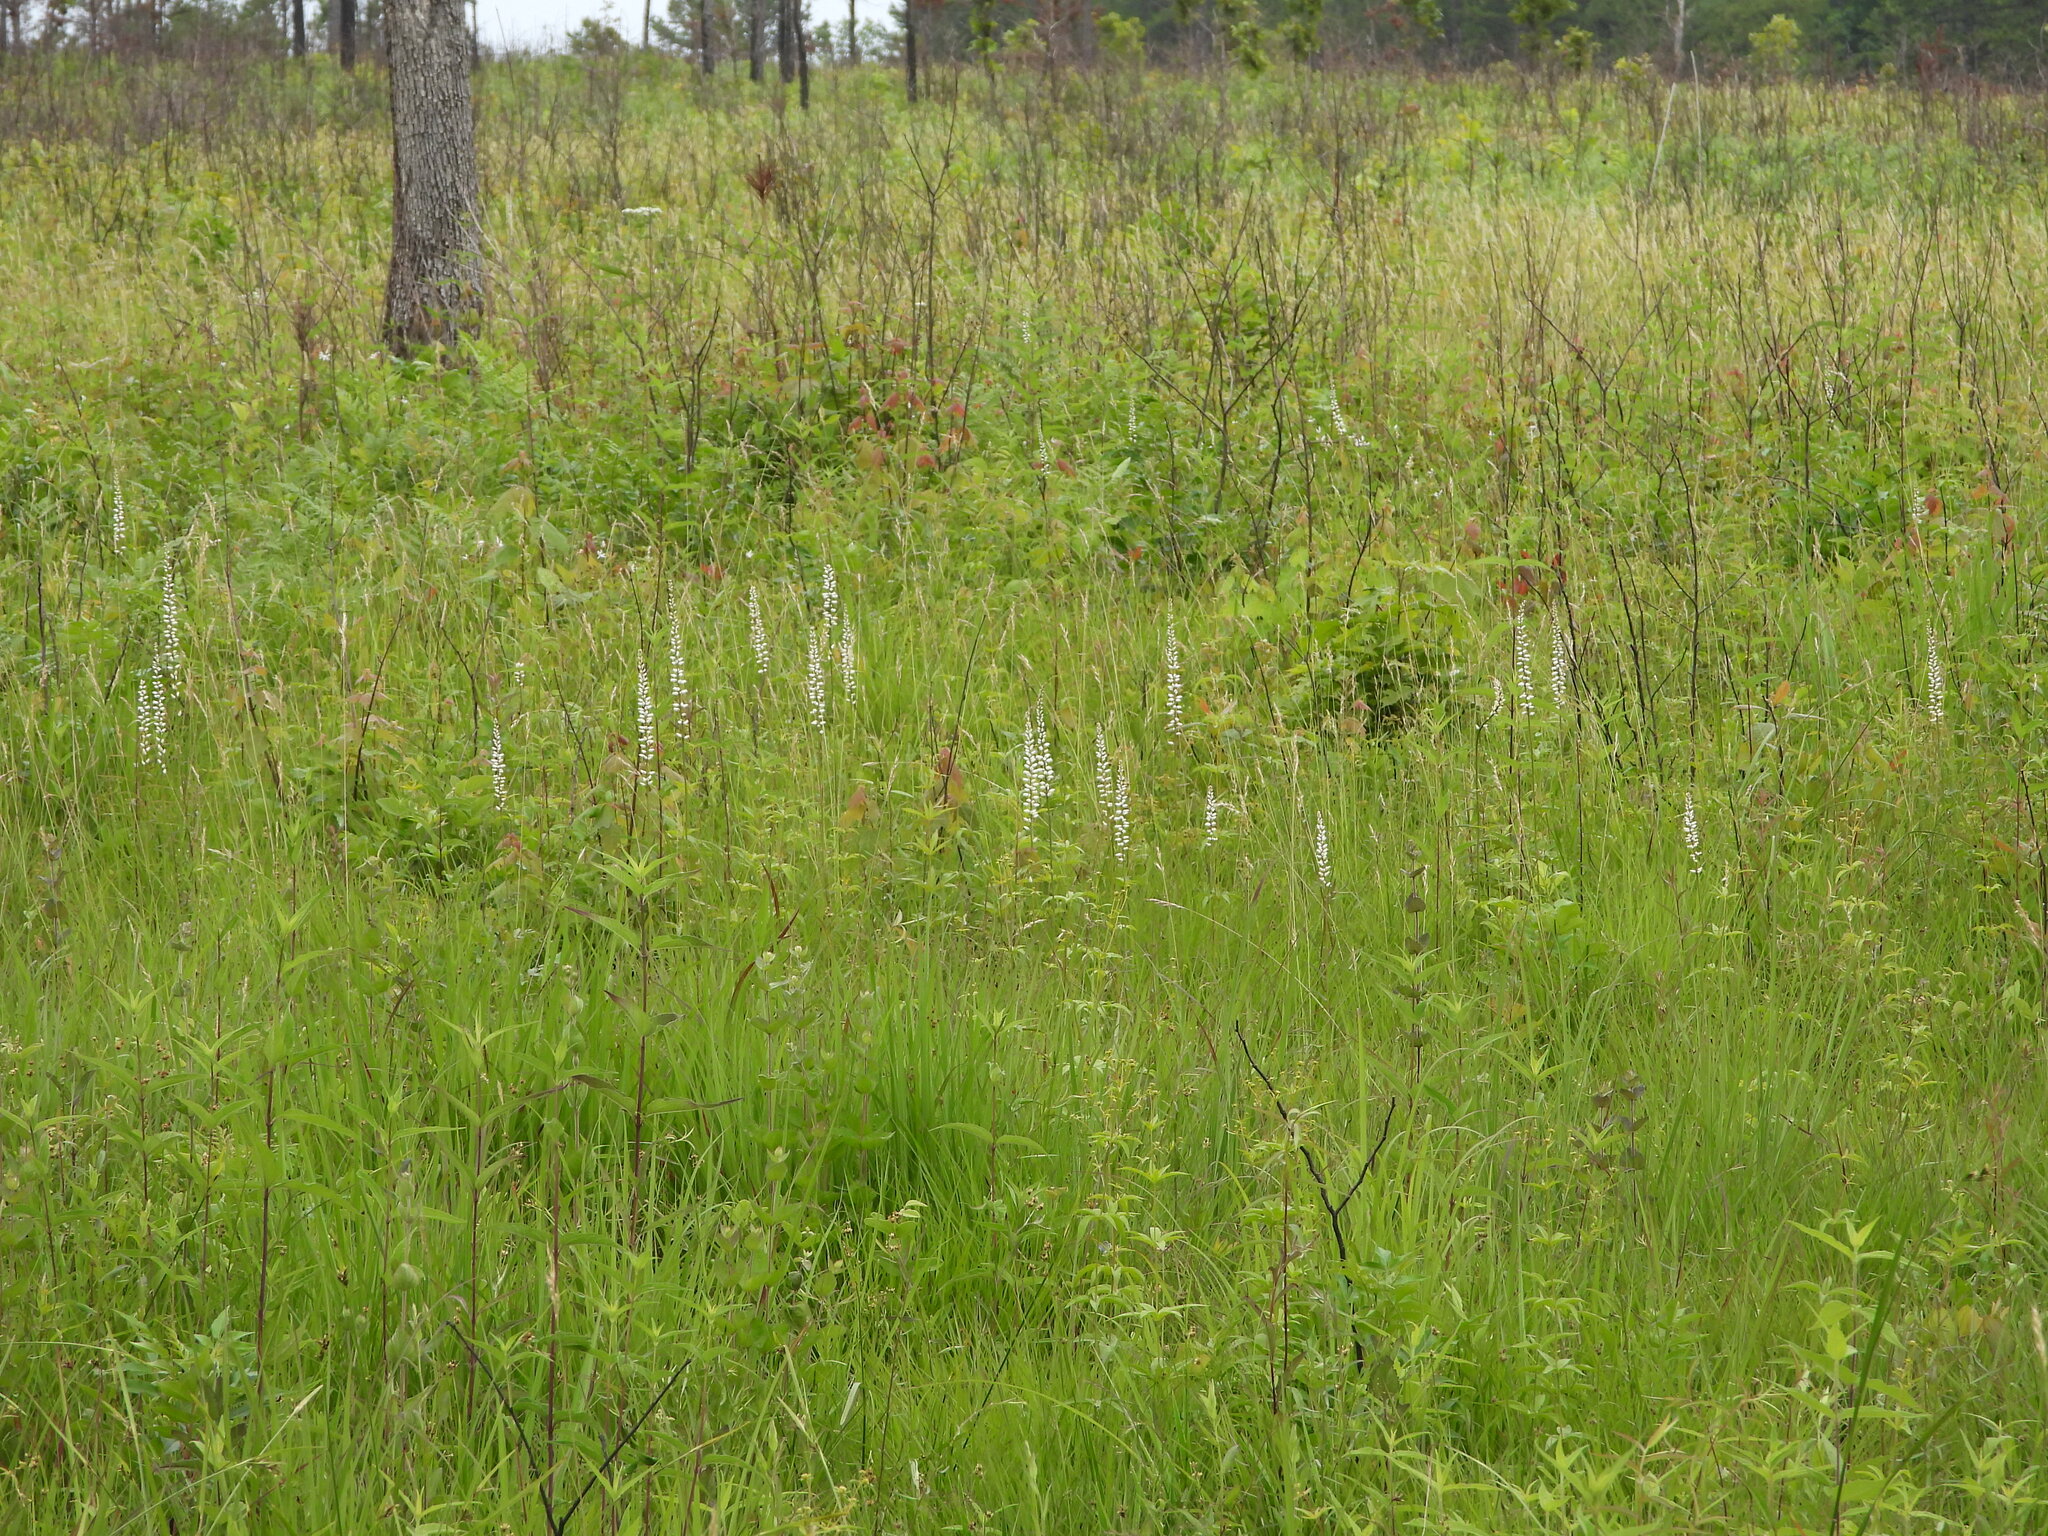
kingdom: Plantae
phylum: Tracheophyta
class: Liliopsida
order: Dioscoreales
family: Nartheciaceae
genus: Aletris
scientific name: Aletris farinosa
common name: Colicroot
